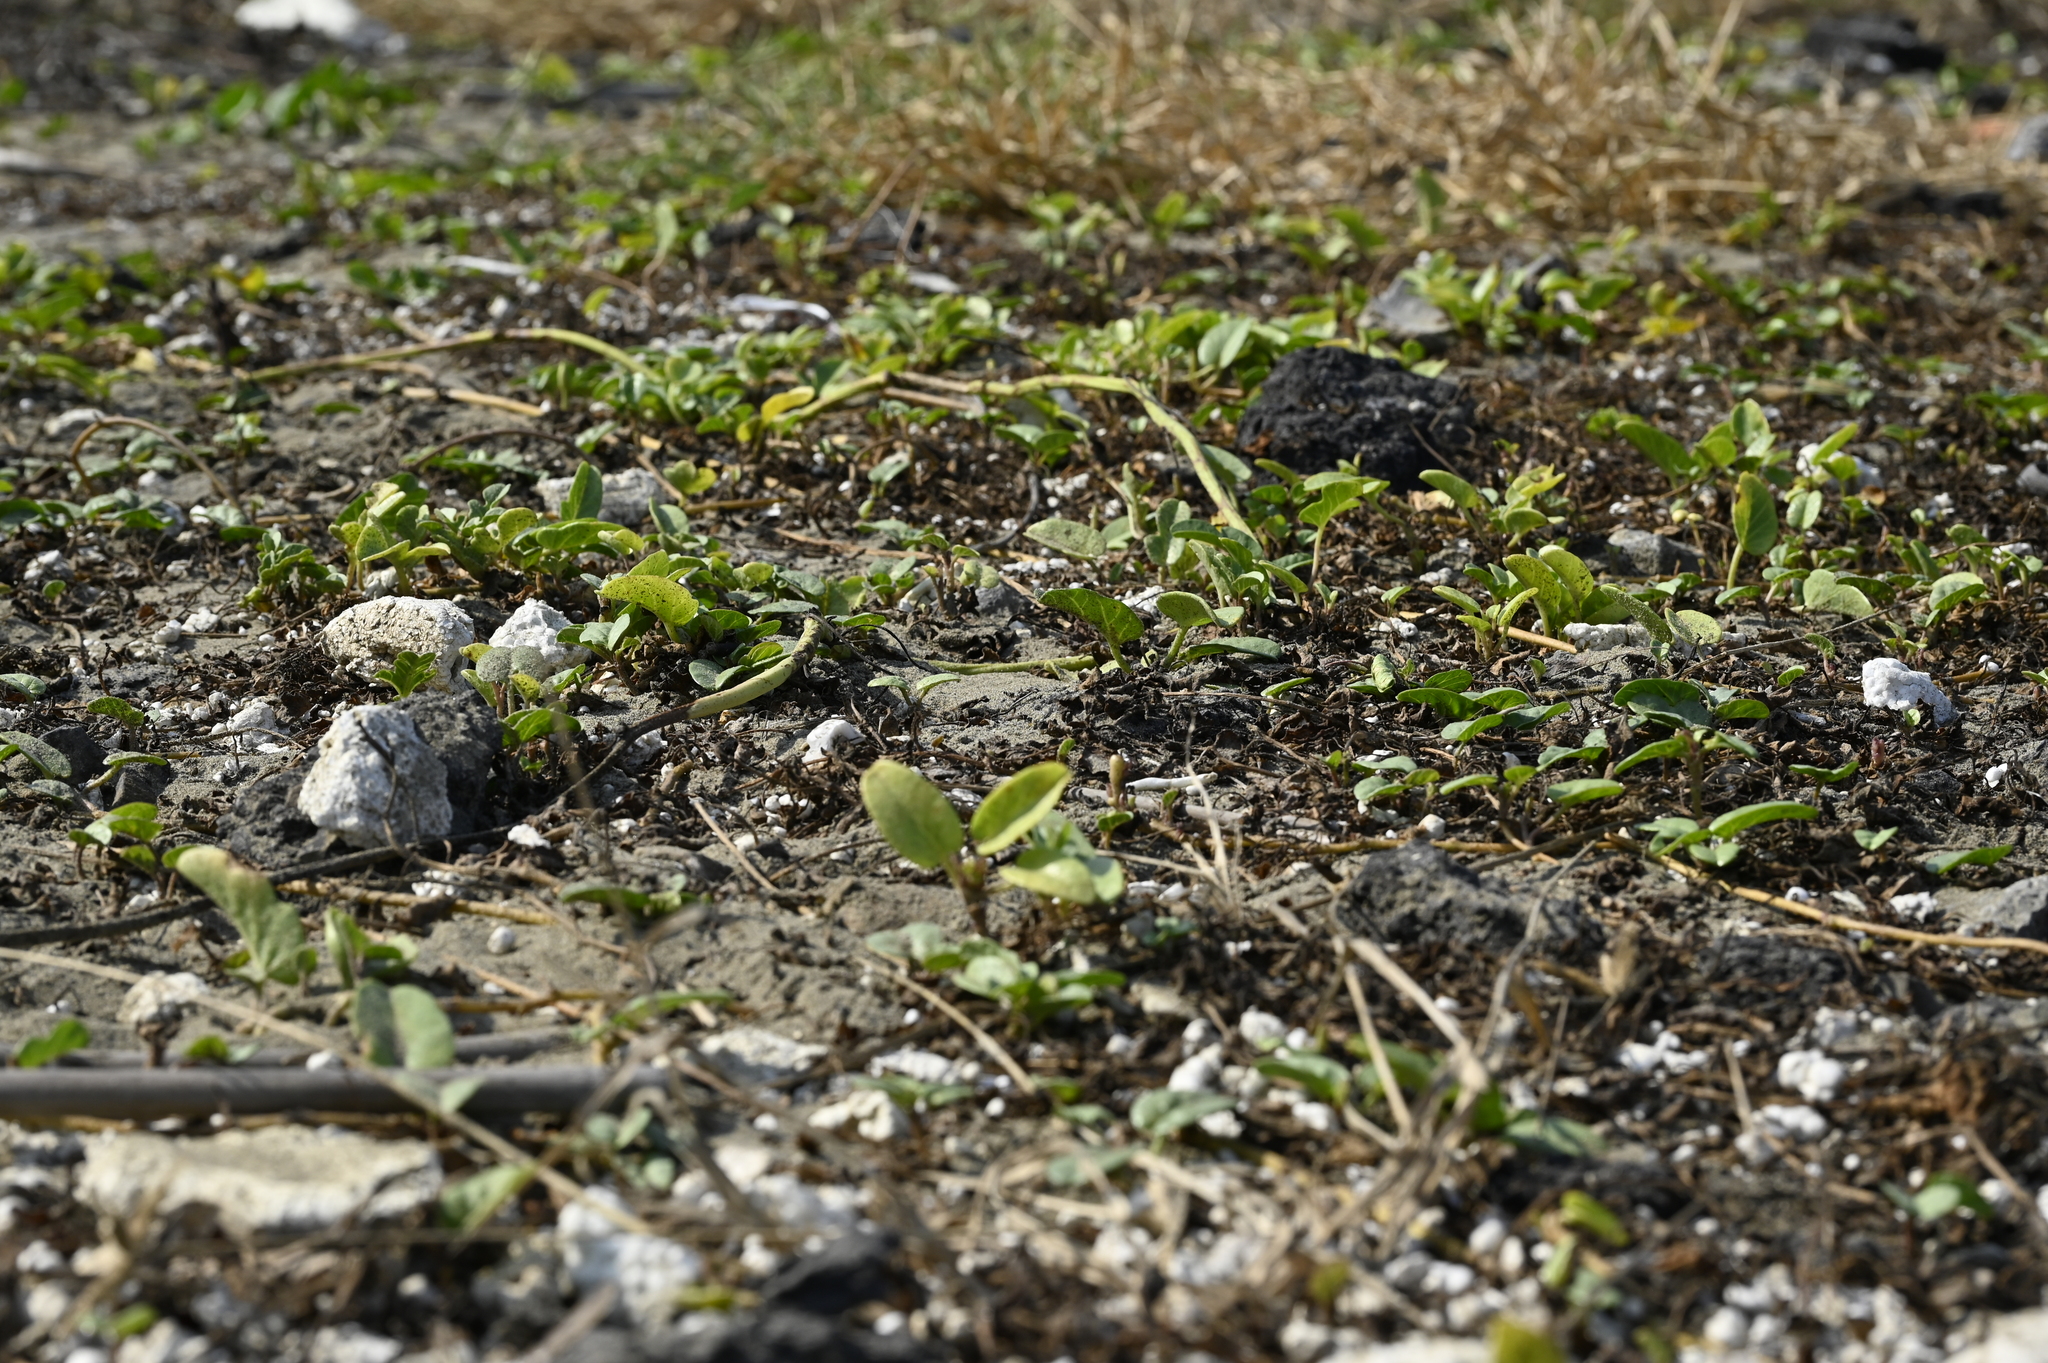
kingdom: Plantae
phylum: Tracheophyta
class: Magnoliopsida
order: Solanales
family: Convolvulaceae
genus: Ipomoea
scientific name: Ipomoea imperati
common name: Fiddle-leaf morning-glory
